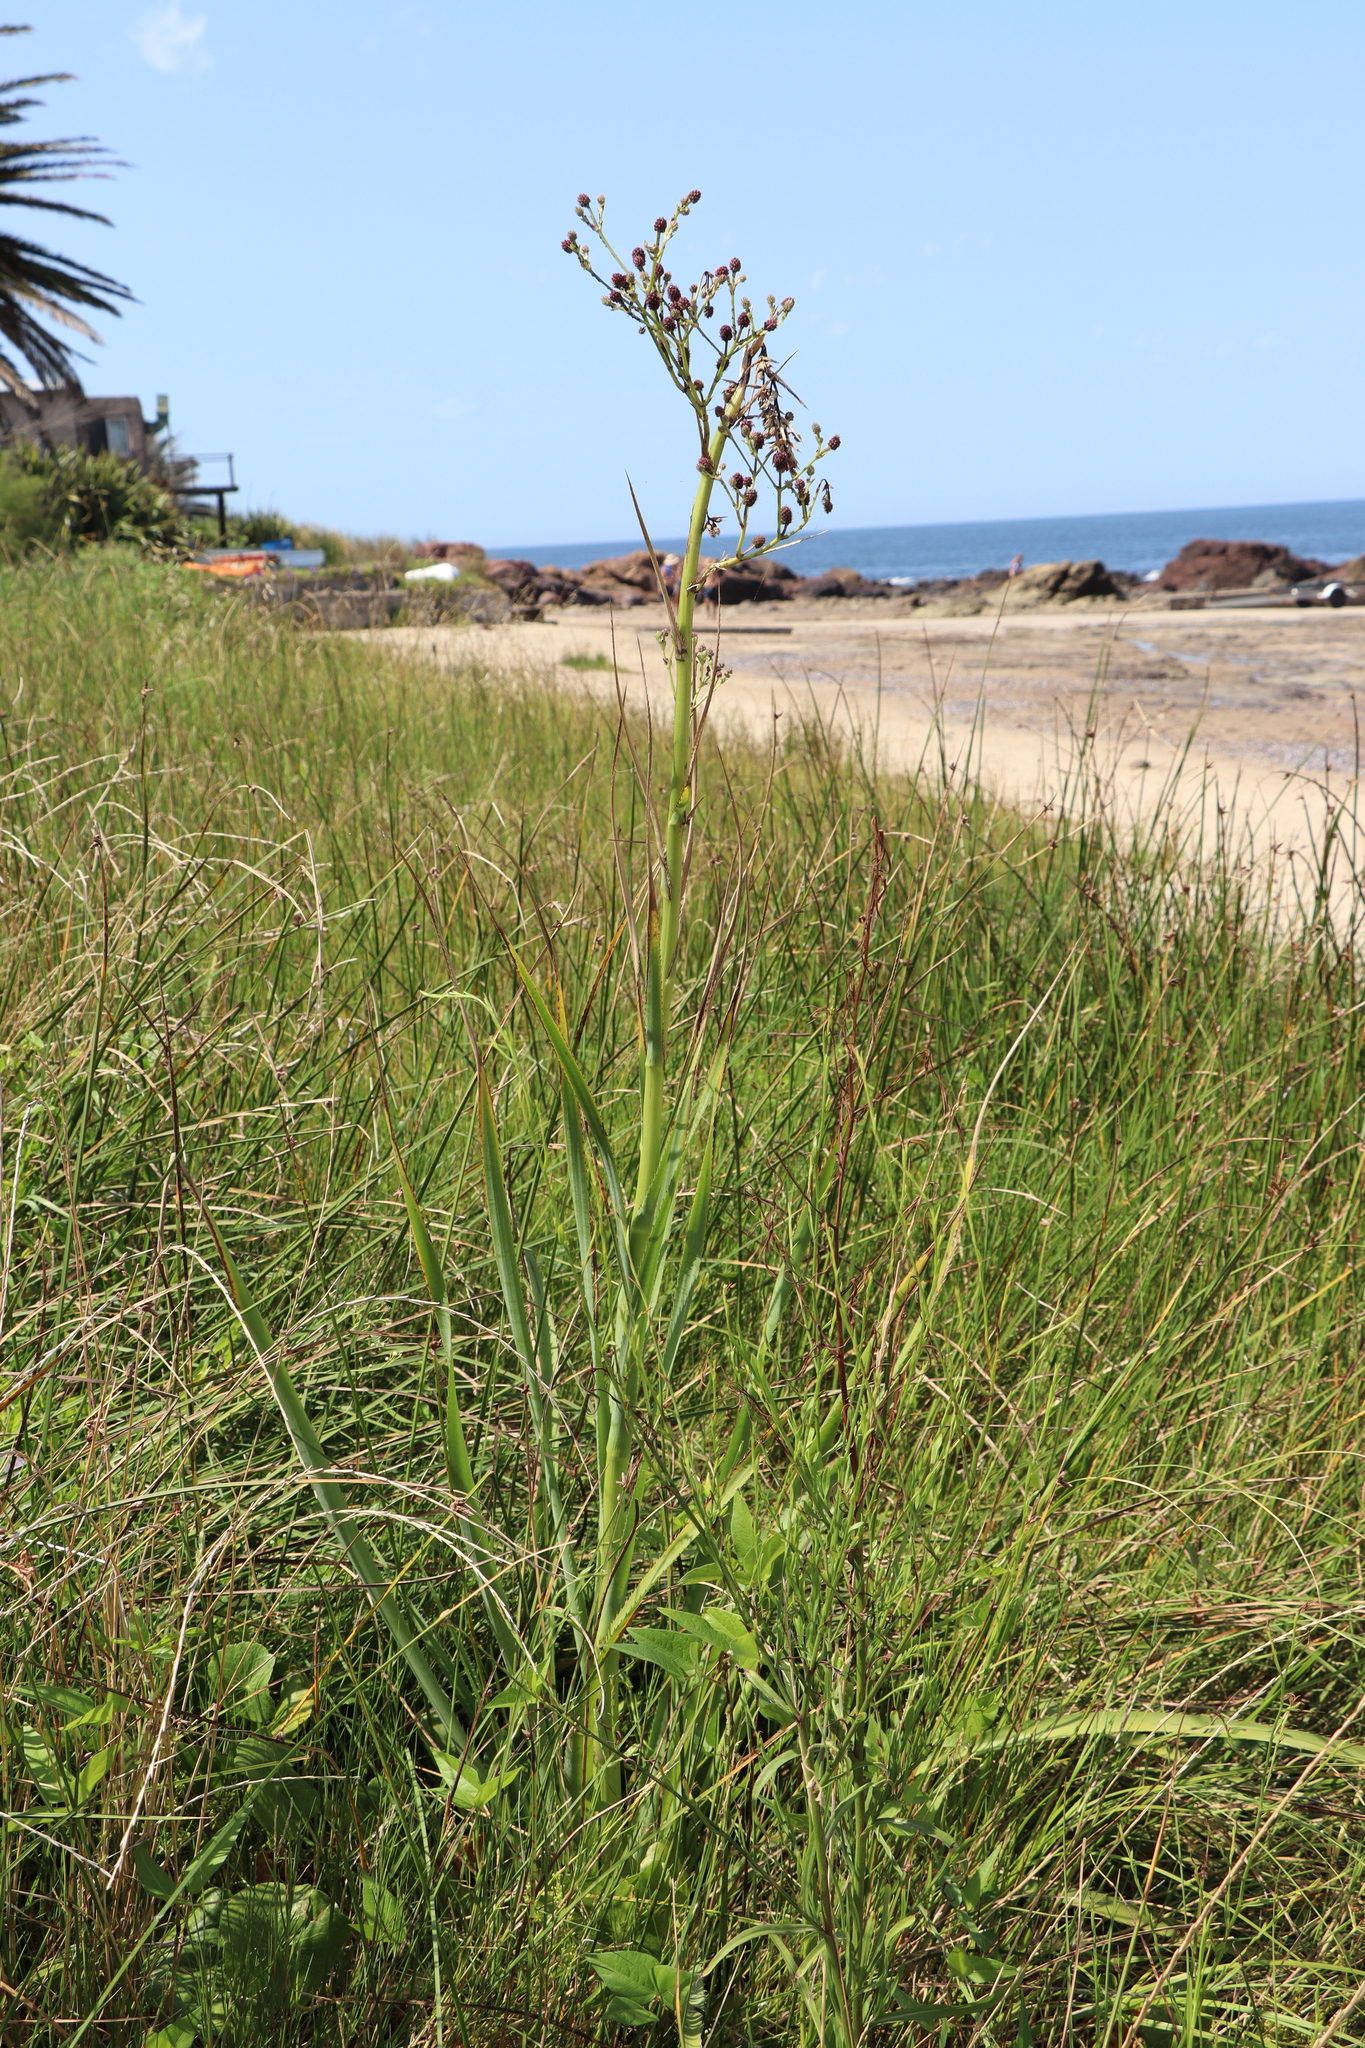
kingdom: Plantae
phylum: Tracheophyta
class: Magnoliopsida
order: Apiales
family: Apiaceae
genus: Eryngium
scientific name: Eryngium pandanifolium
